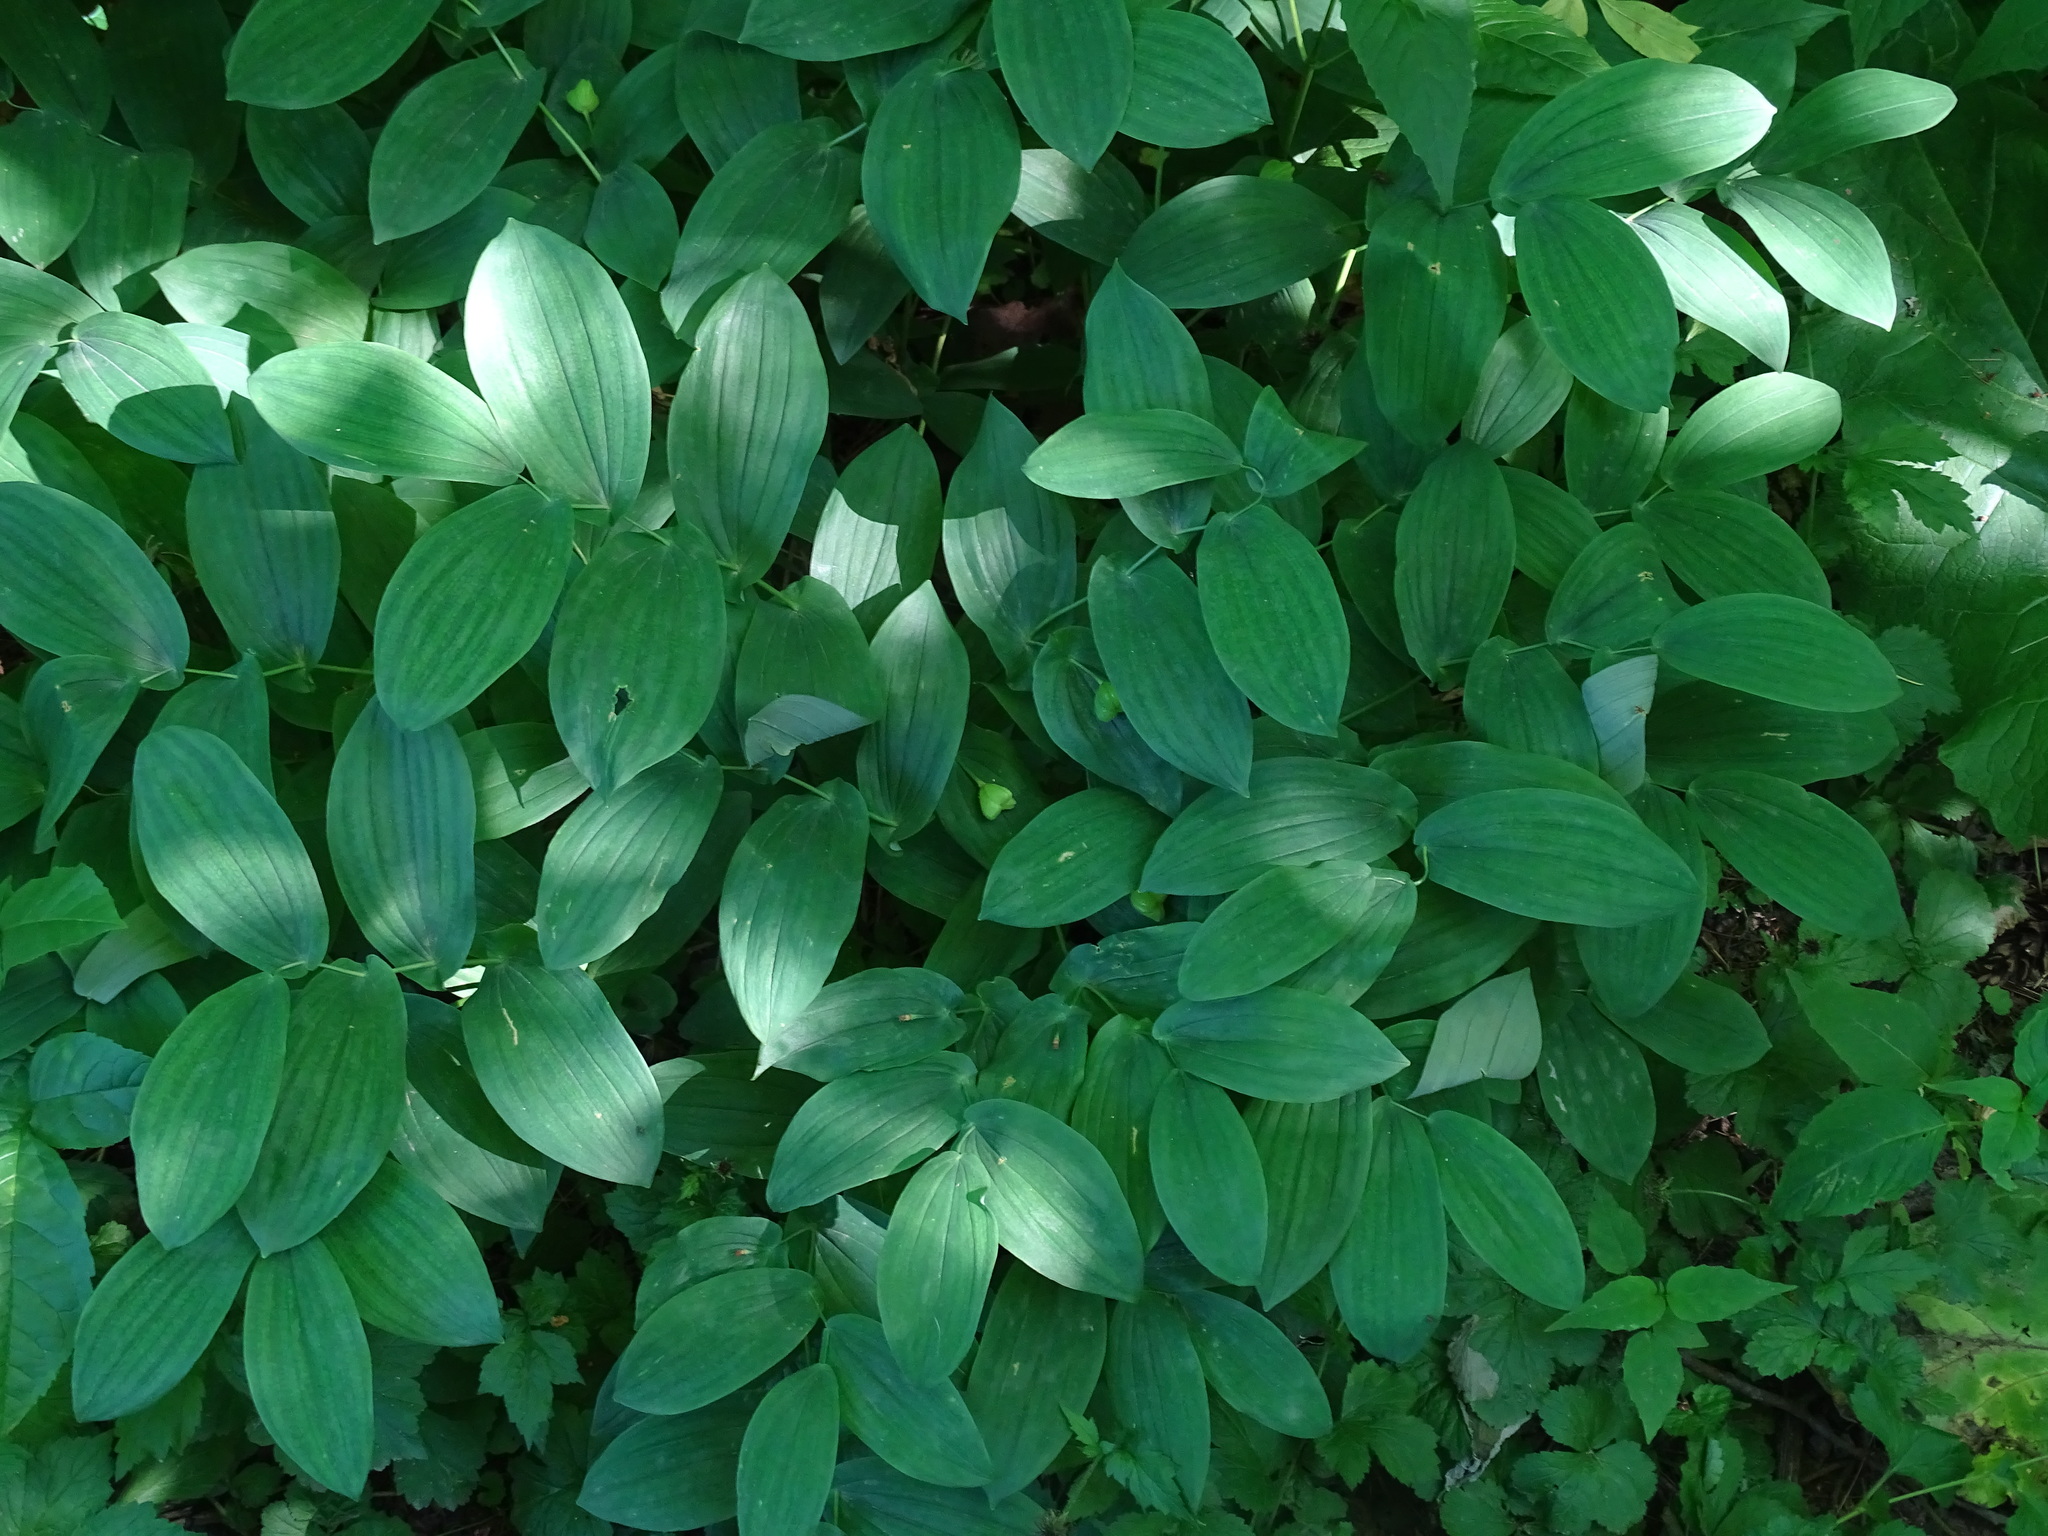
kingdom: Plantae
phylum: Tracheophyta
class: Liliopsida
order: Liliales
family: Colchicaceae
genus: Uvularia
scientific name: Uvularia grandiflora
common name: Bellwort
